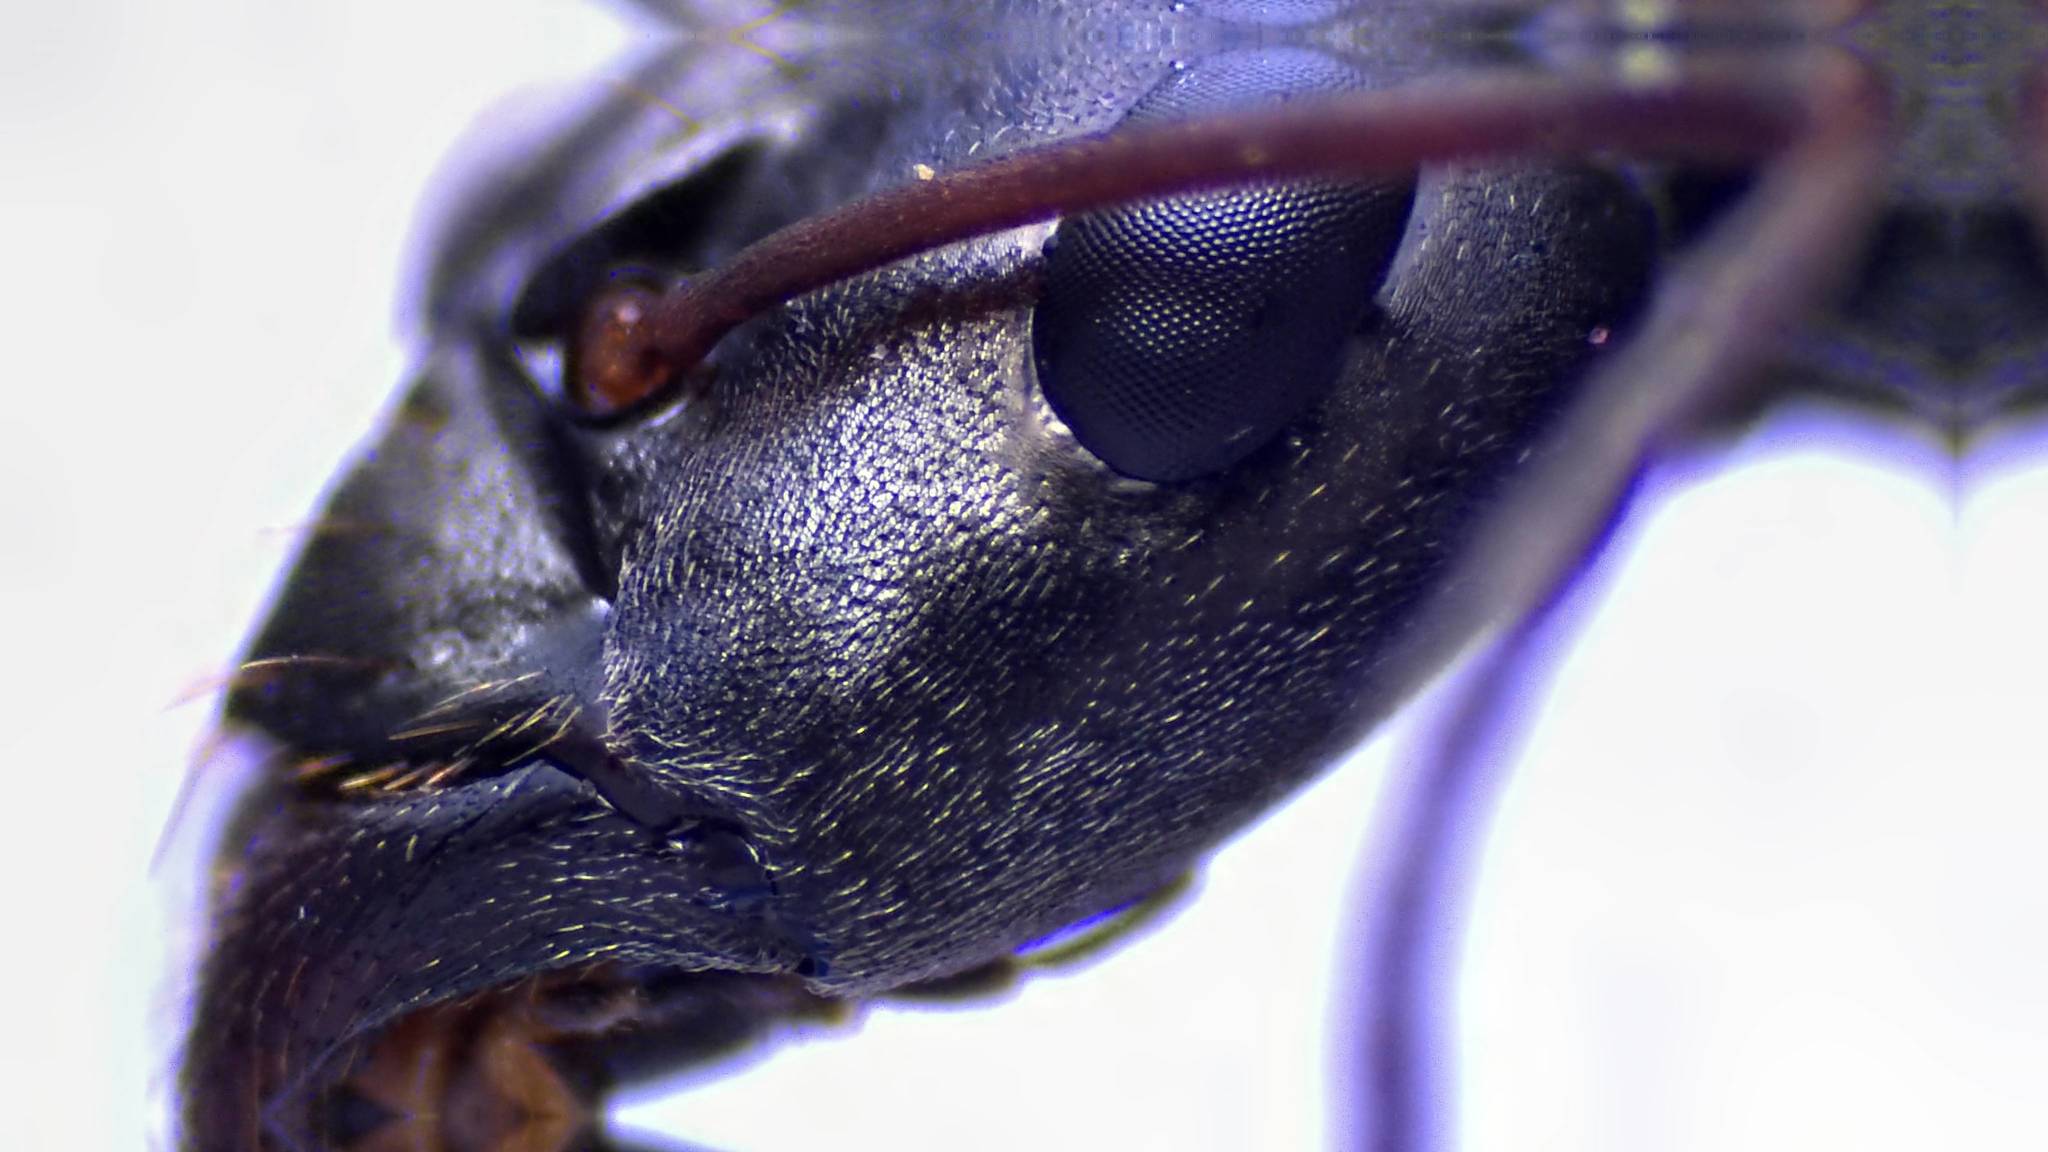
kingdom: Animalia
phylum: Arthropoda
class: Insecta
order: Hymenoptera
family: Formicidae
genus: Formica
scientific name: Formica subsericea
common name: Silky field ant
